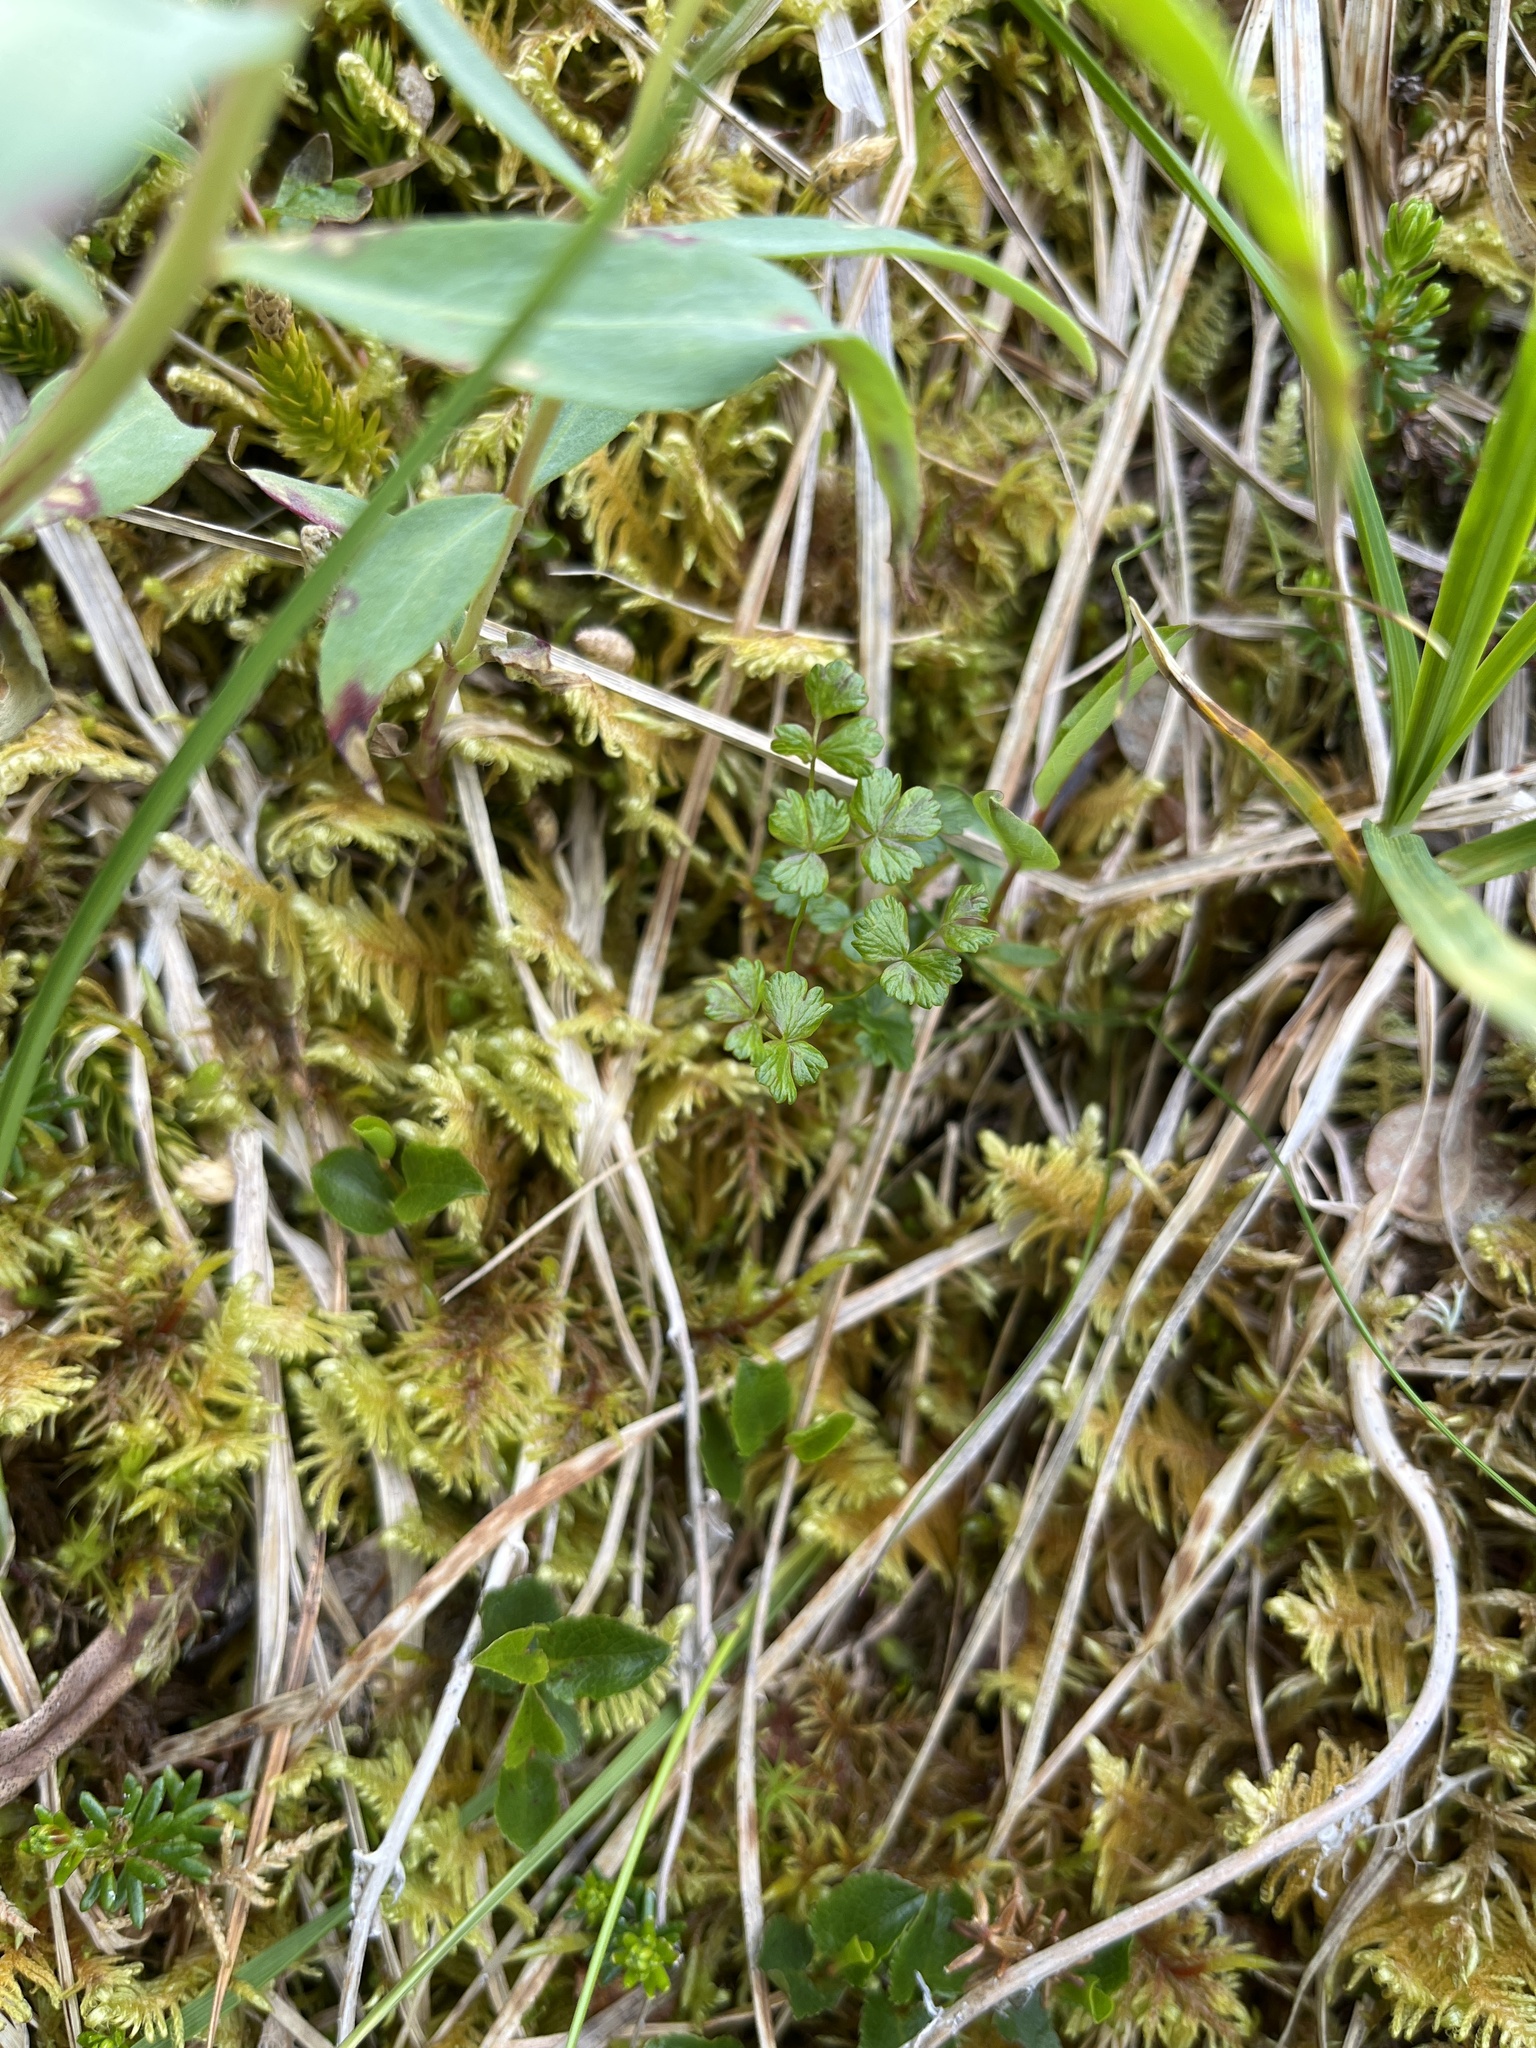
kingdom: Plantae
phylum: Tracheophyta
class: Magnoliopsida
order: Ranunculales
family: Ranunculaceae
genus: Thalictrum
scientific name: Thalictrum alpinum
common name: Alpine meadow-rue
